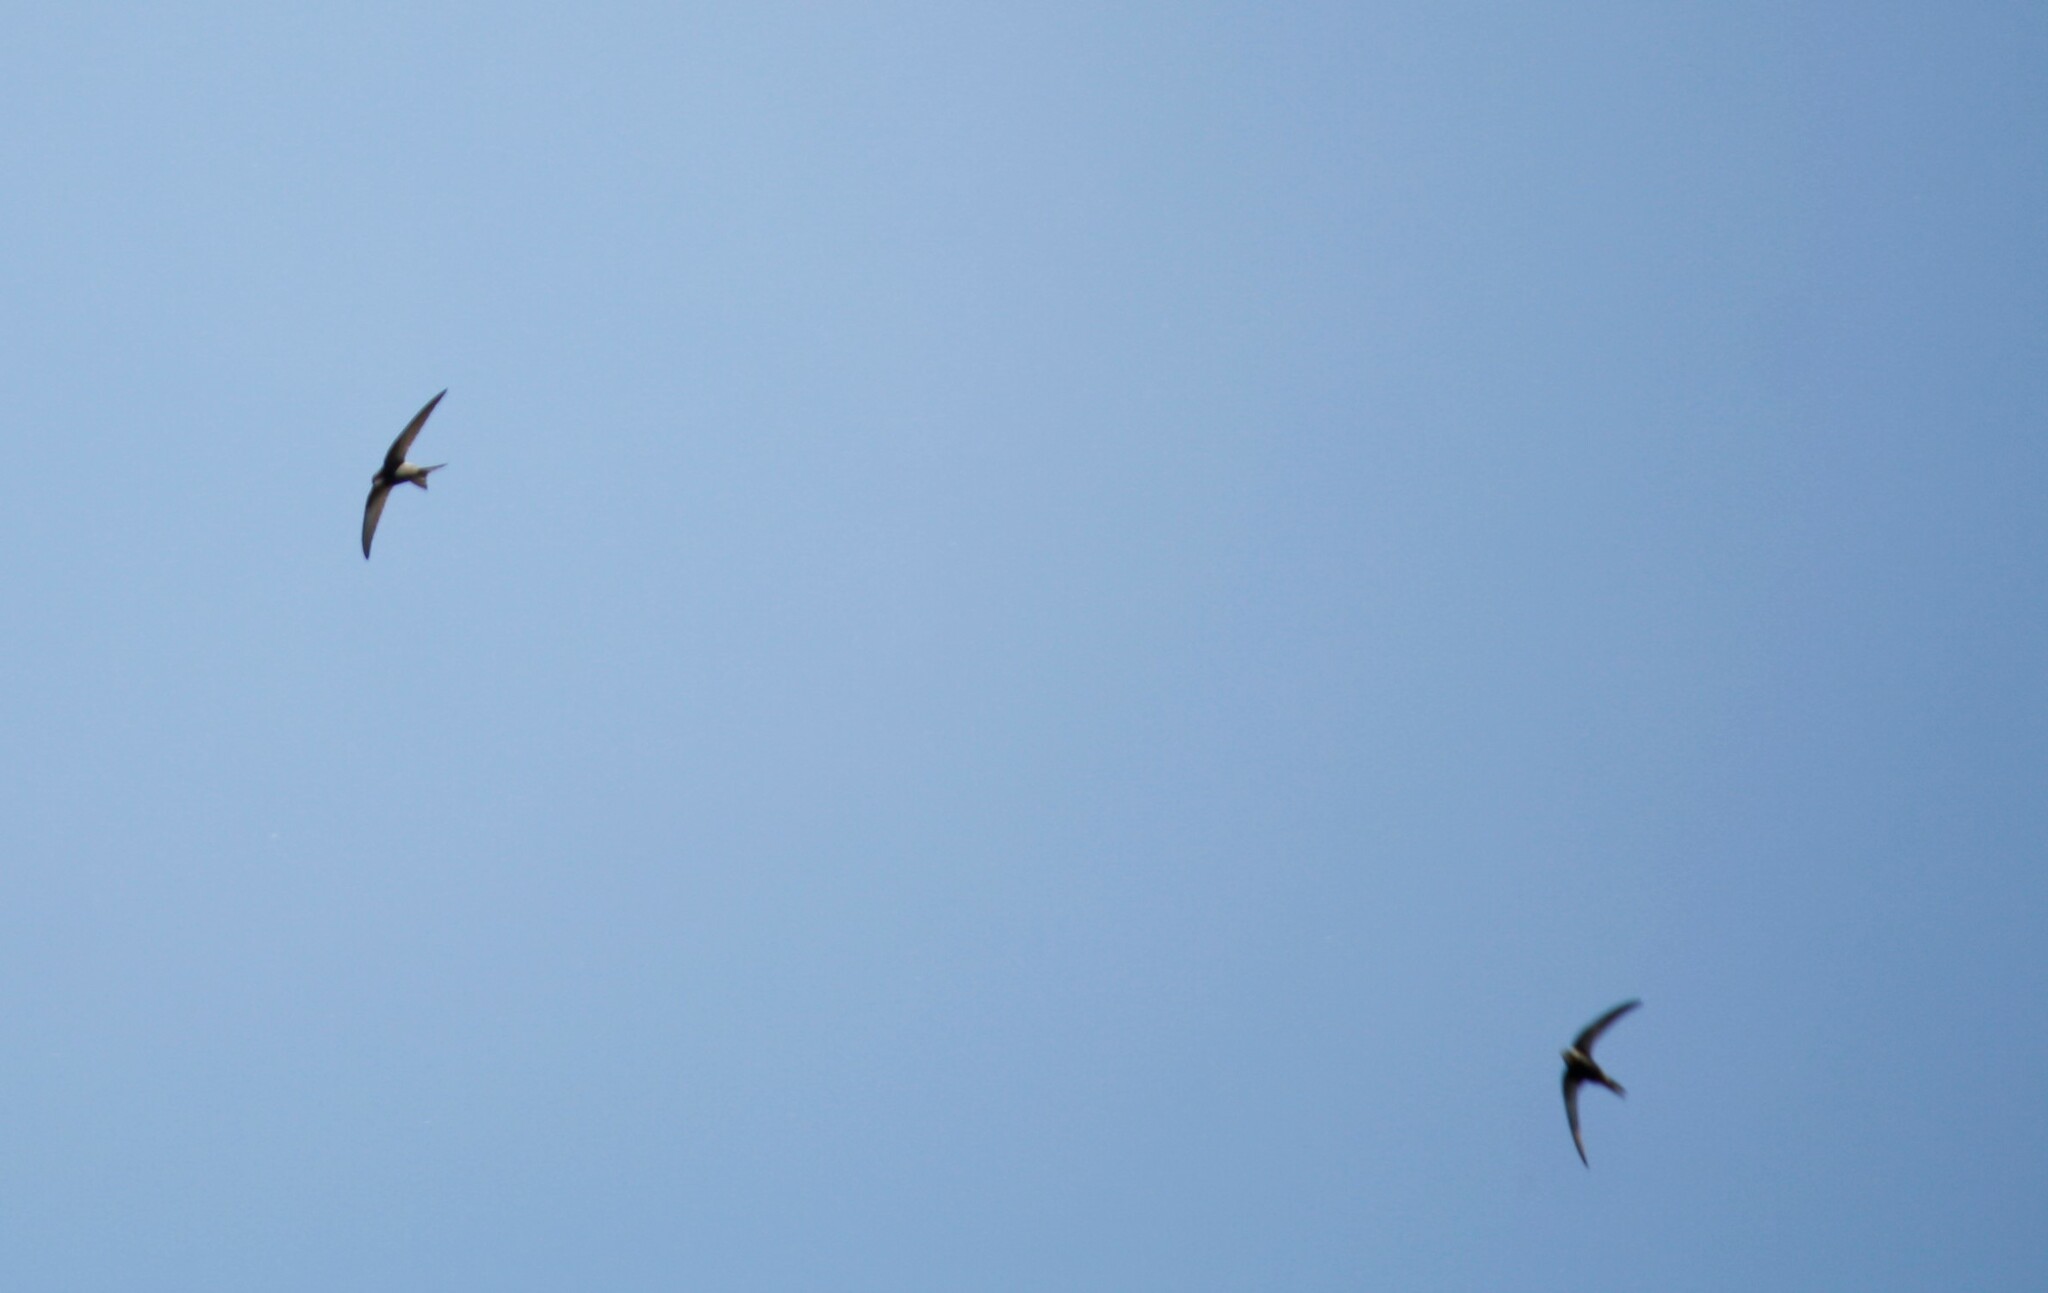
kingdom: Animalia
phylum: Chordata
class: Aves
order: Apodiformes
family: Apodidae
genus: Apus
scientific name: Apus apus
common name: Common swift
